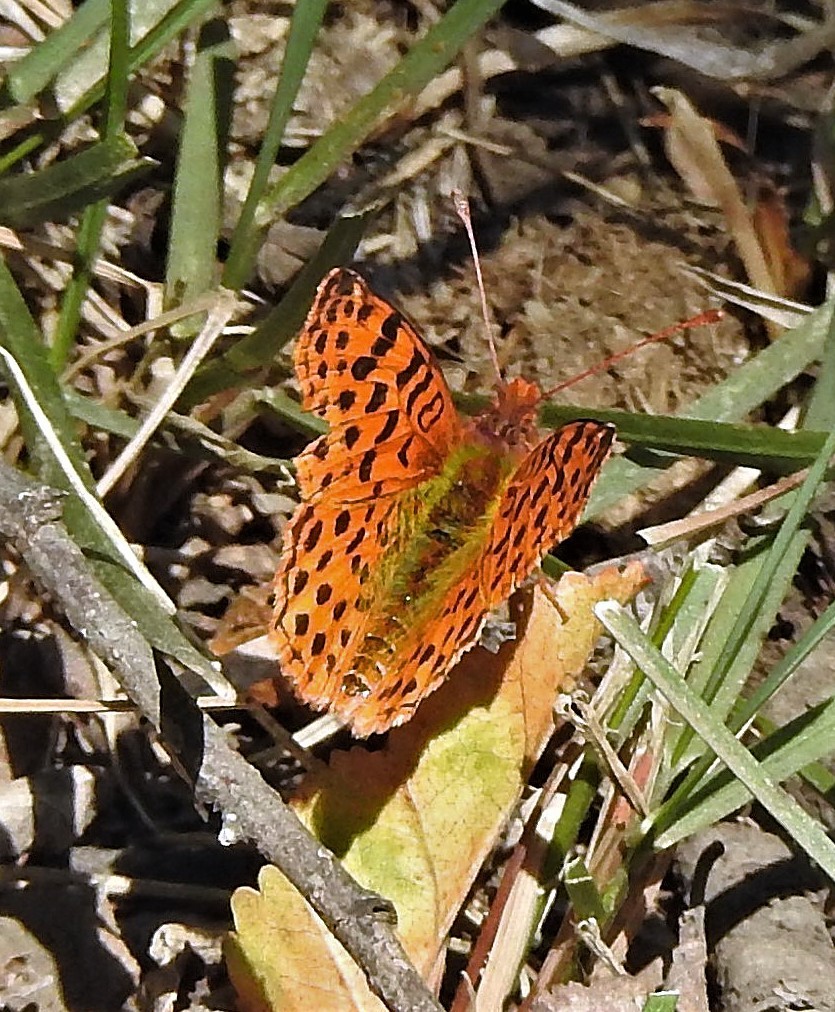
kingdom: Animalia
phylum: Arthropoda
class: Insecta
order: Lepidoptera
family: Nymphalidae
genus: Issoria
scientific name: Issoria Yramea cytheris
